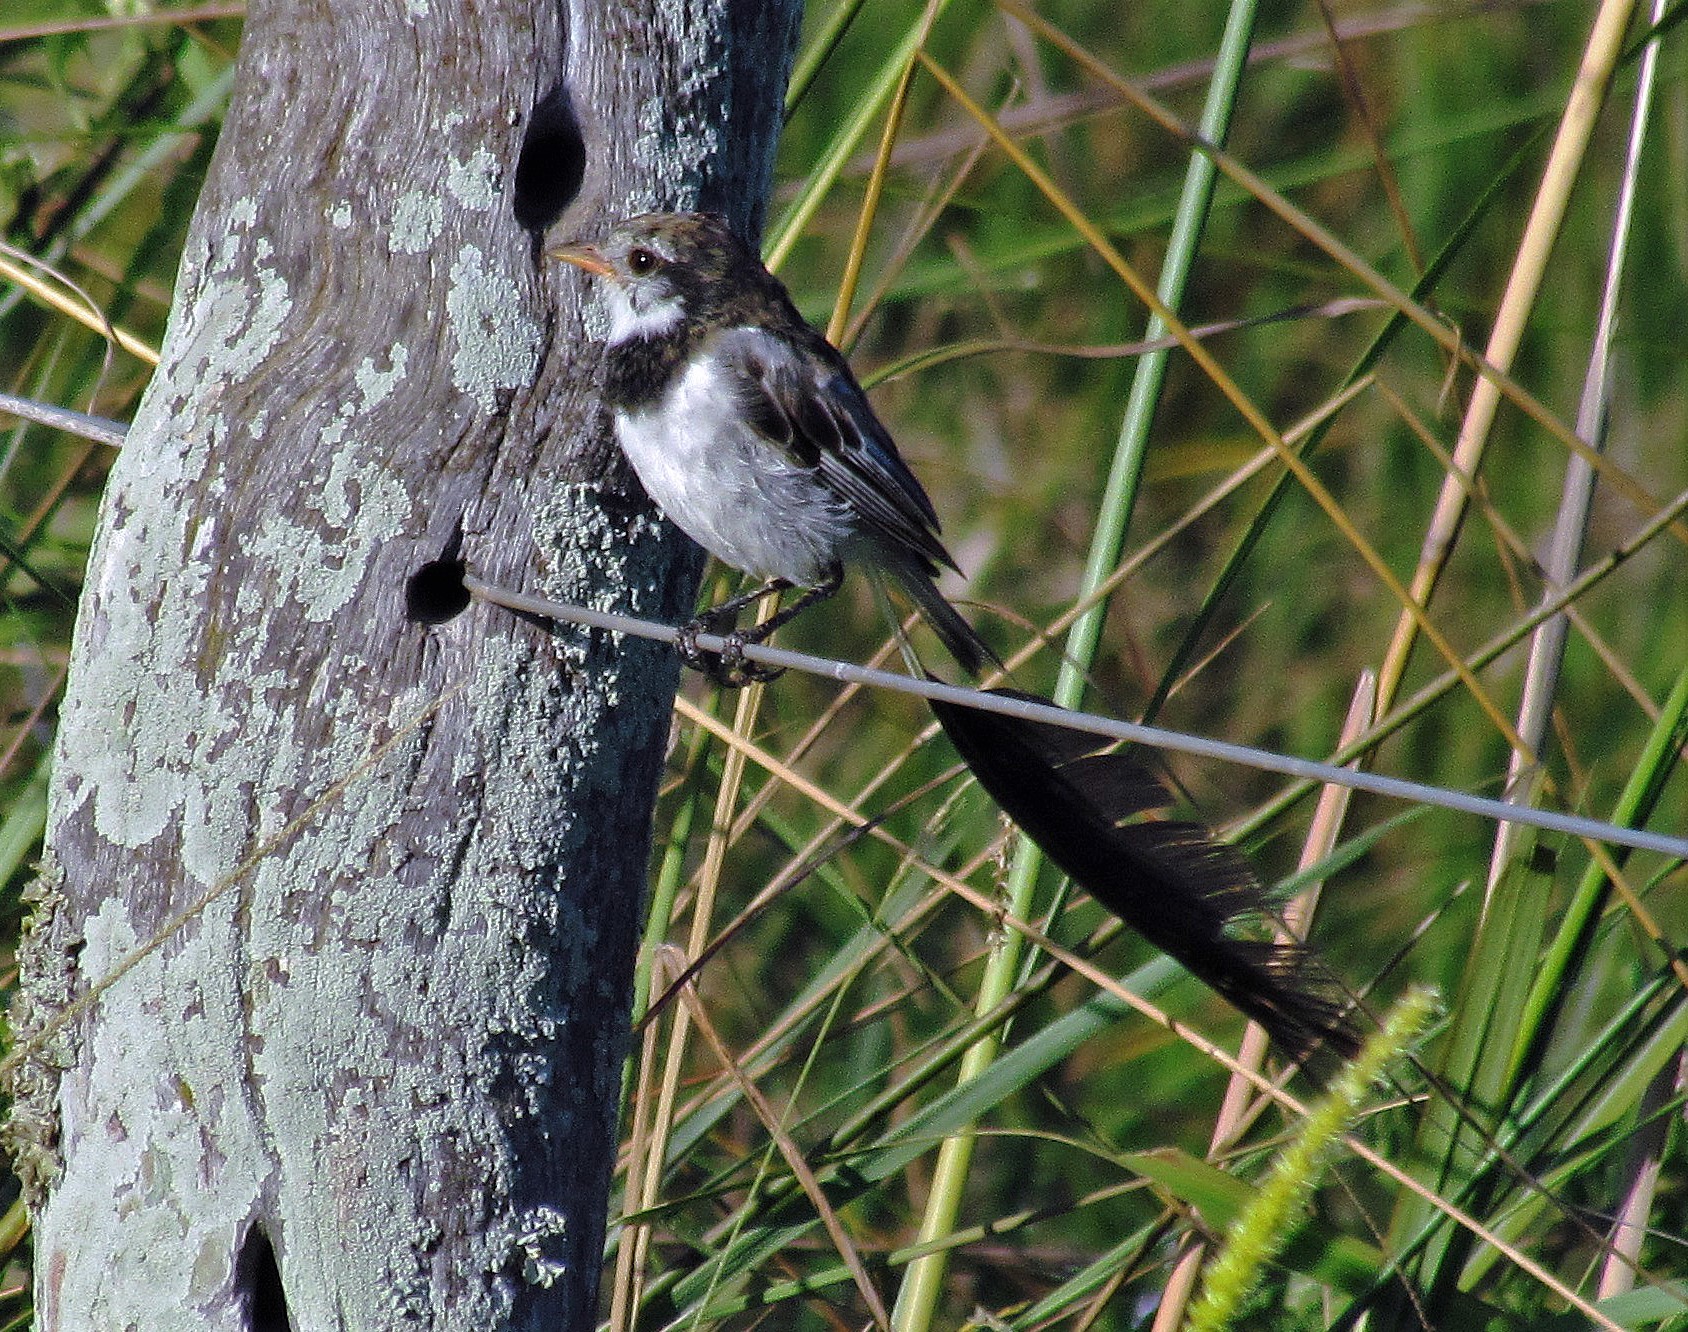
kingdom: Animalia
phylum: Chordata
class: Aves
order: Passeriformes
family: Tyrannidae
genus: Alectrurus
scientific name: Alectrurus risora
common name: Strange-tailed tyrant
